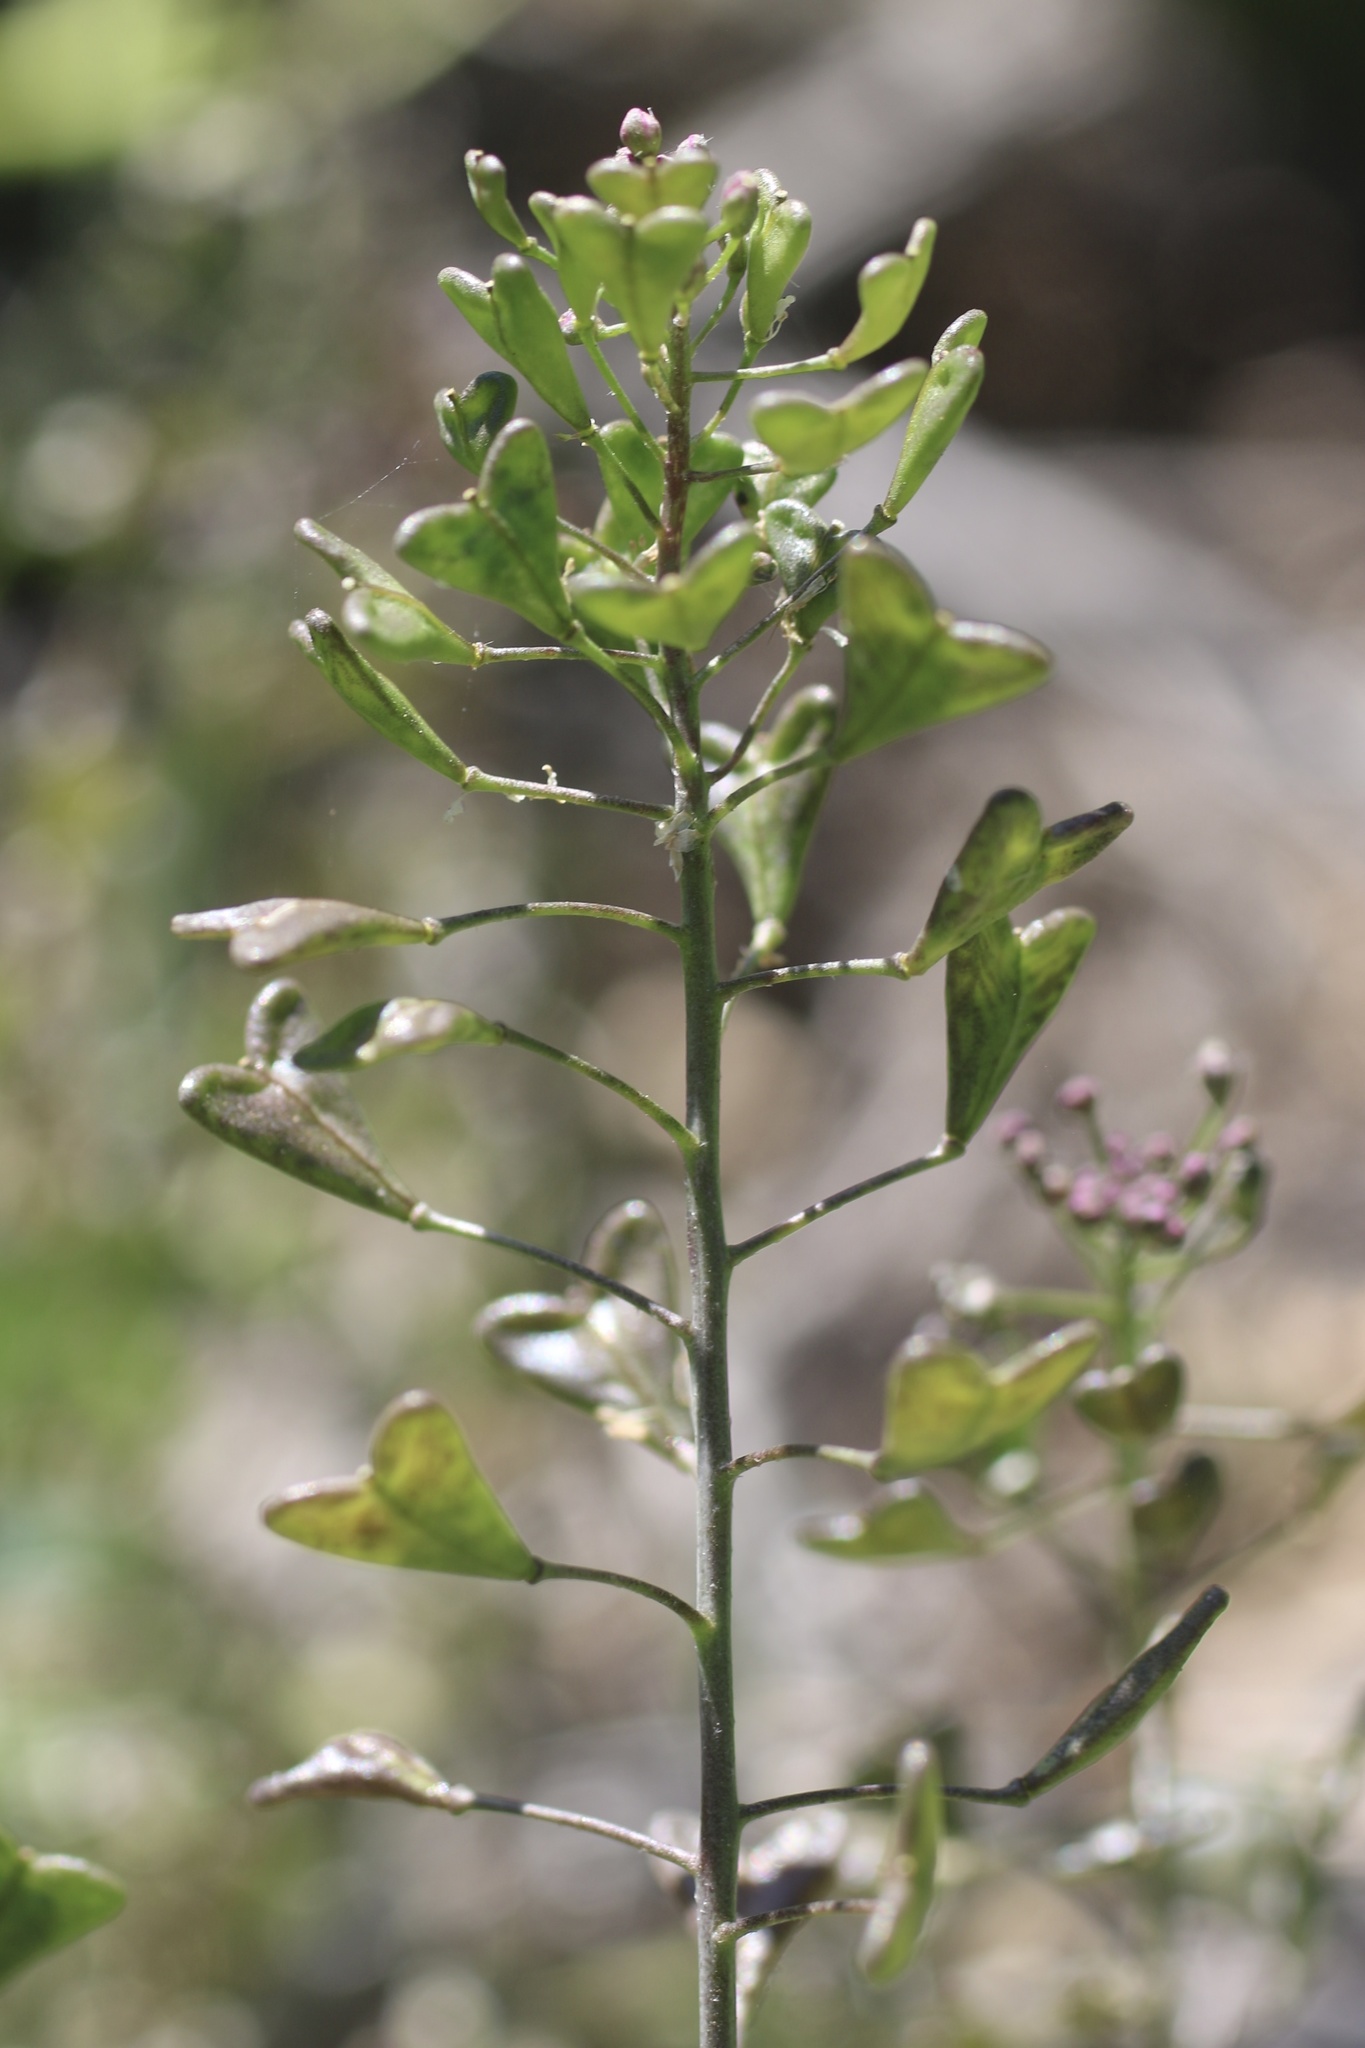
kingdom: Plantae
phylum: Tracheophyta
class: Magnoliopsida
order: Brassicales
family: Brassicaceae
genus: Capsella
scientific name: Capsella bursa-pastoris
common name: Shepherd's purse
